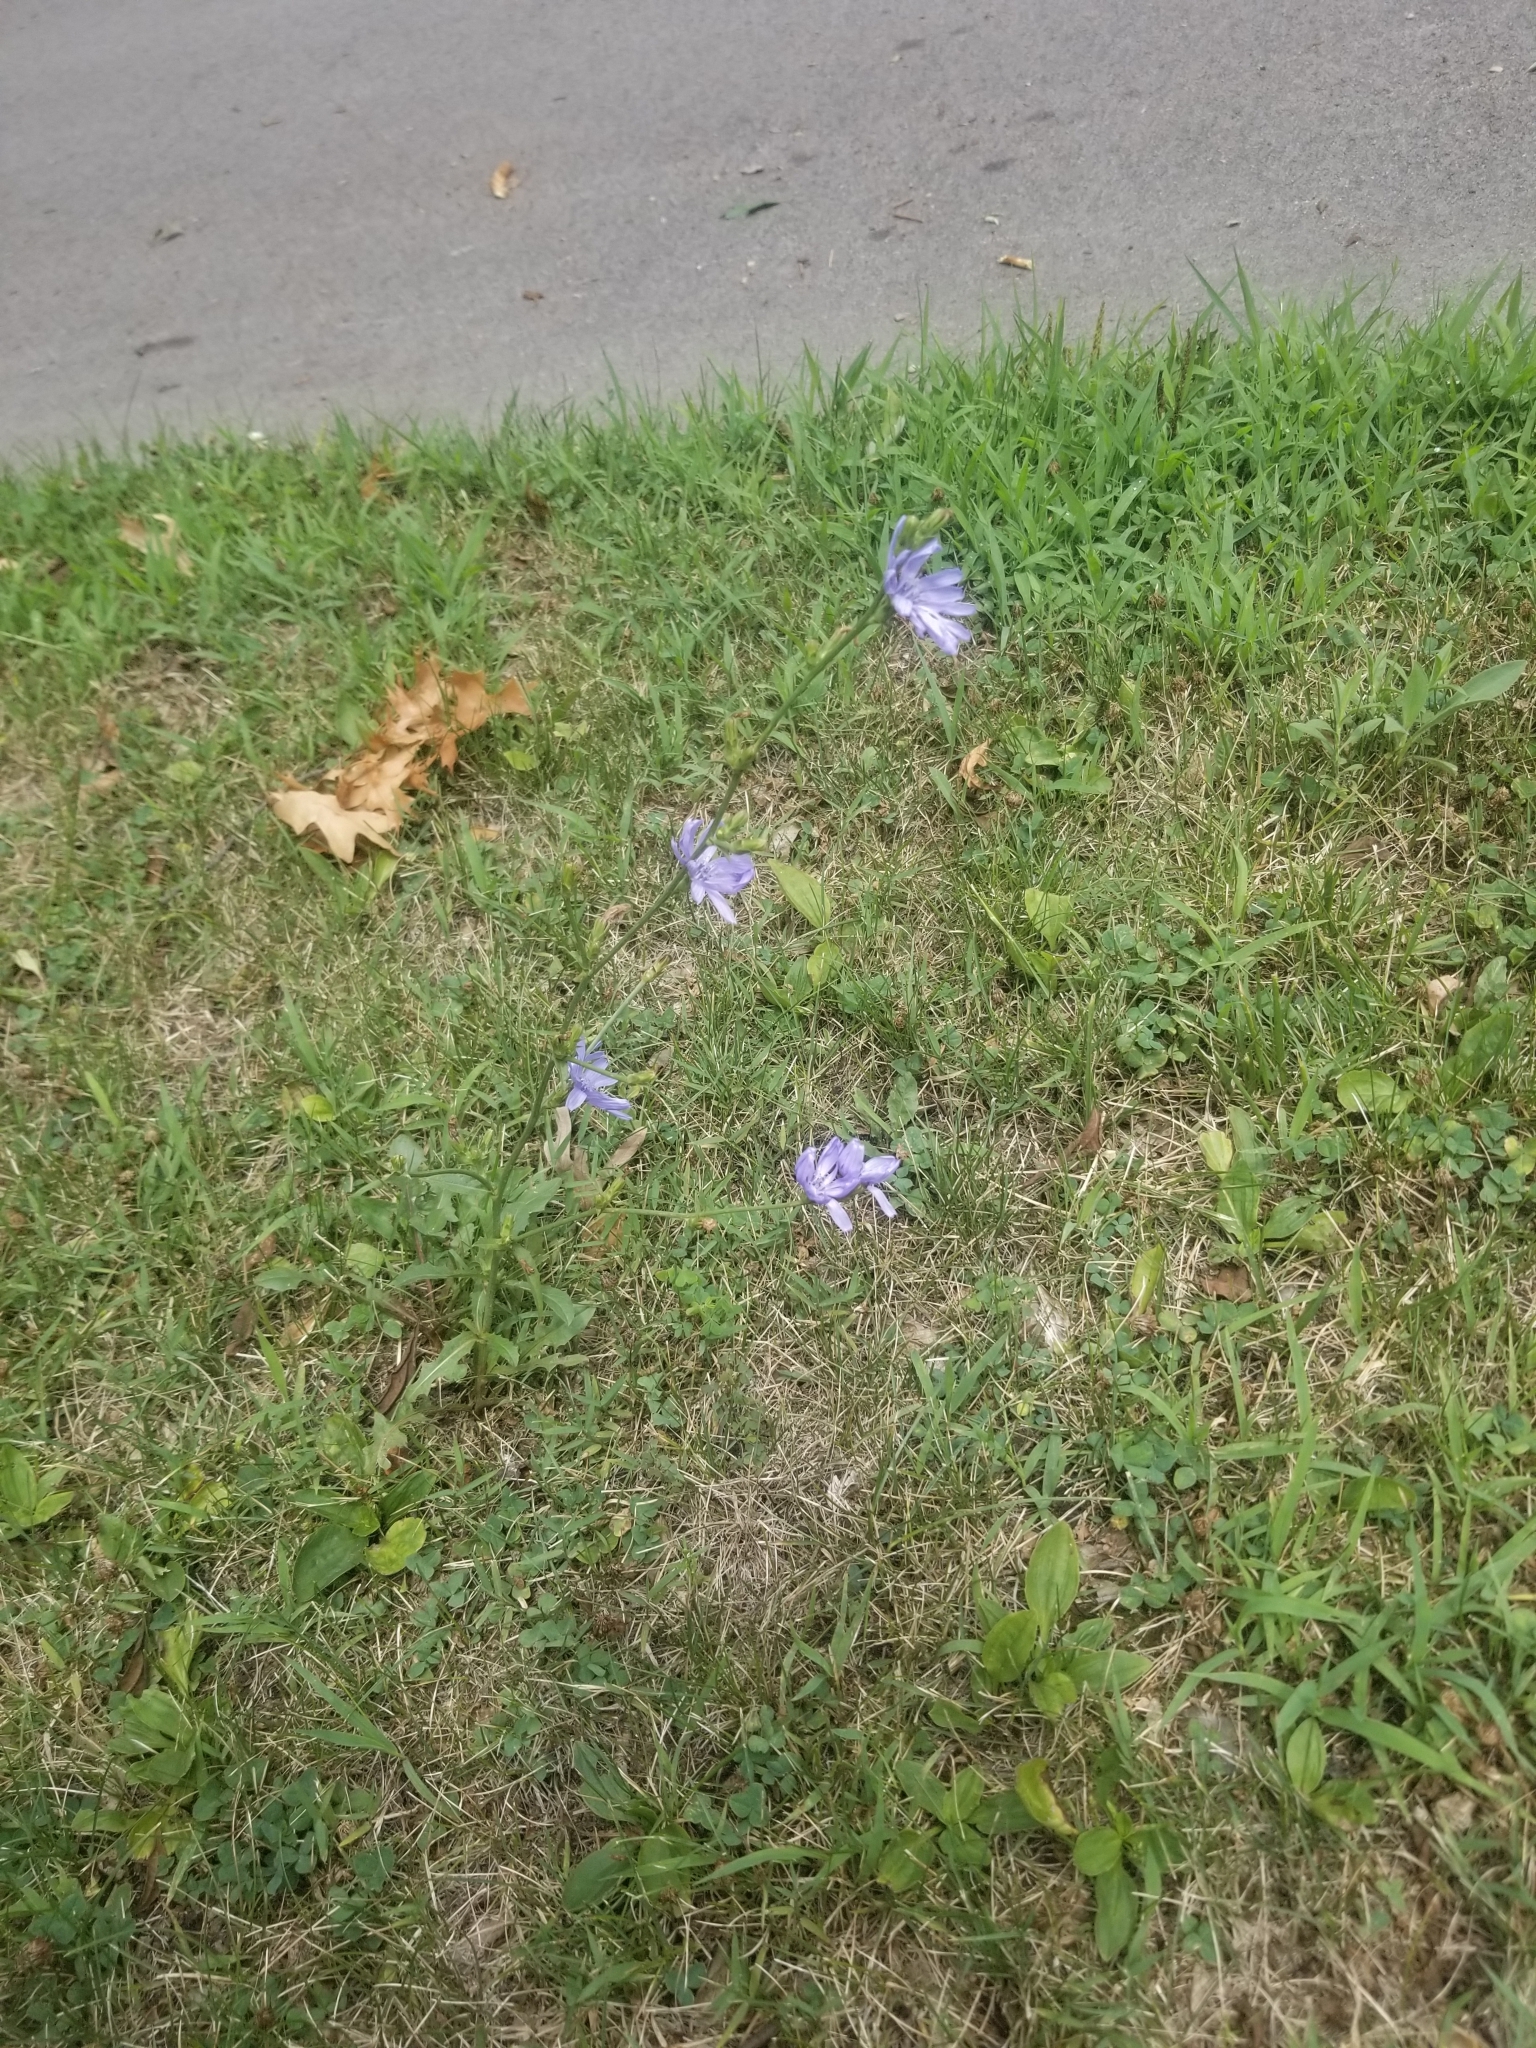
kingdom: Plantae
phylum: Tracheophyta
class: Magnoliopsida
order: Asterales
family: Asteraceae
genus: Cichorium
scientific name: Cichorium intybus
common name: Chicory
